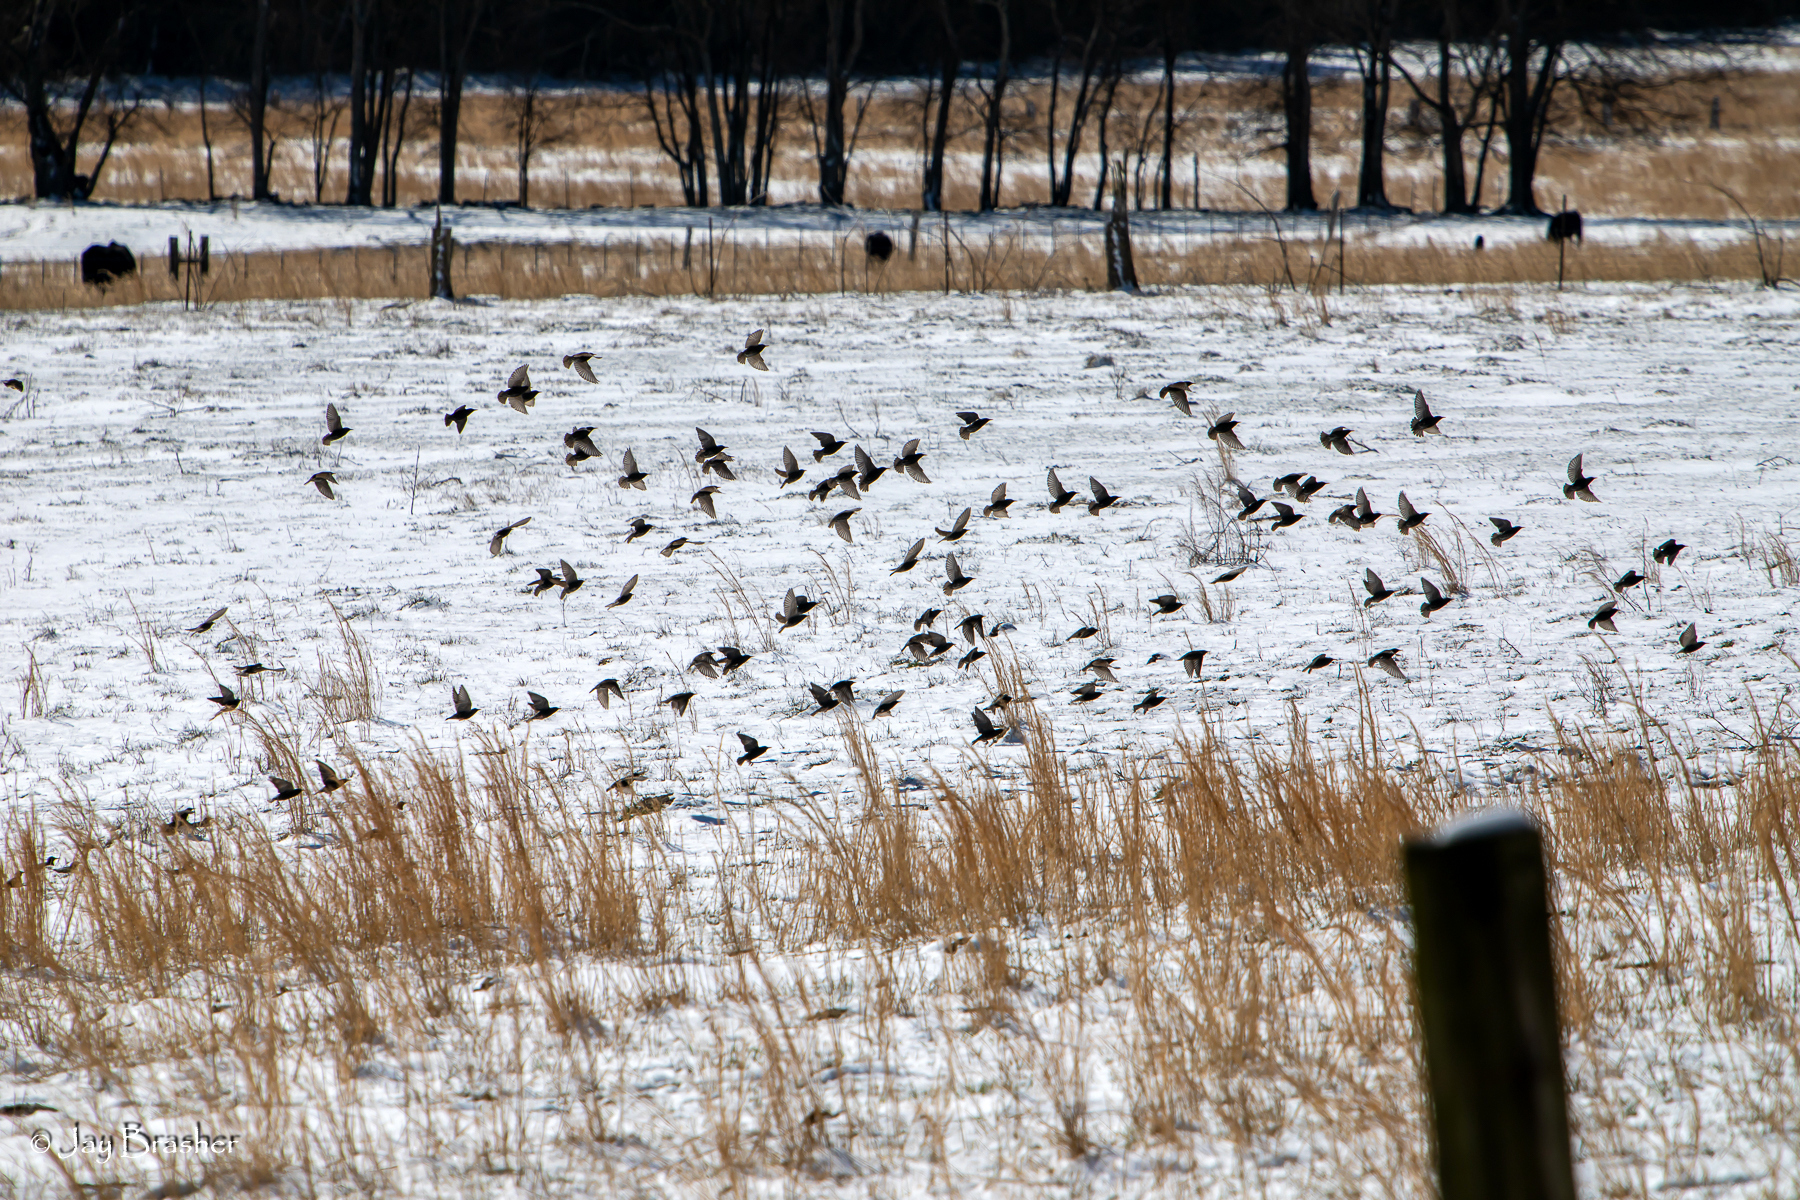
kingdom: Animalia
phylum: Chordata
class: Aves
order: Passeriformes
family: Sturnidae
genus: Sturnus
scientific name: Sturnus vulgaris
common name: Common starling
